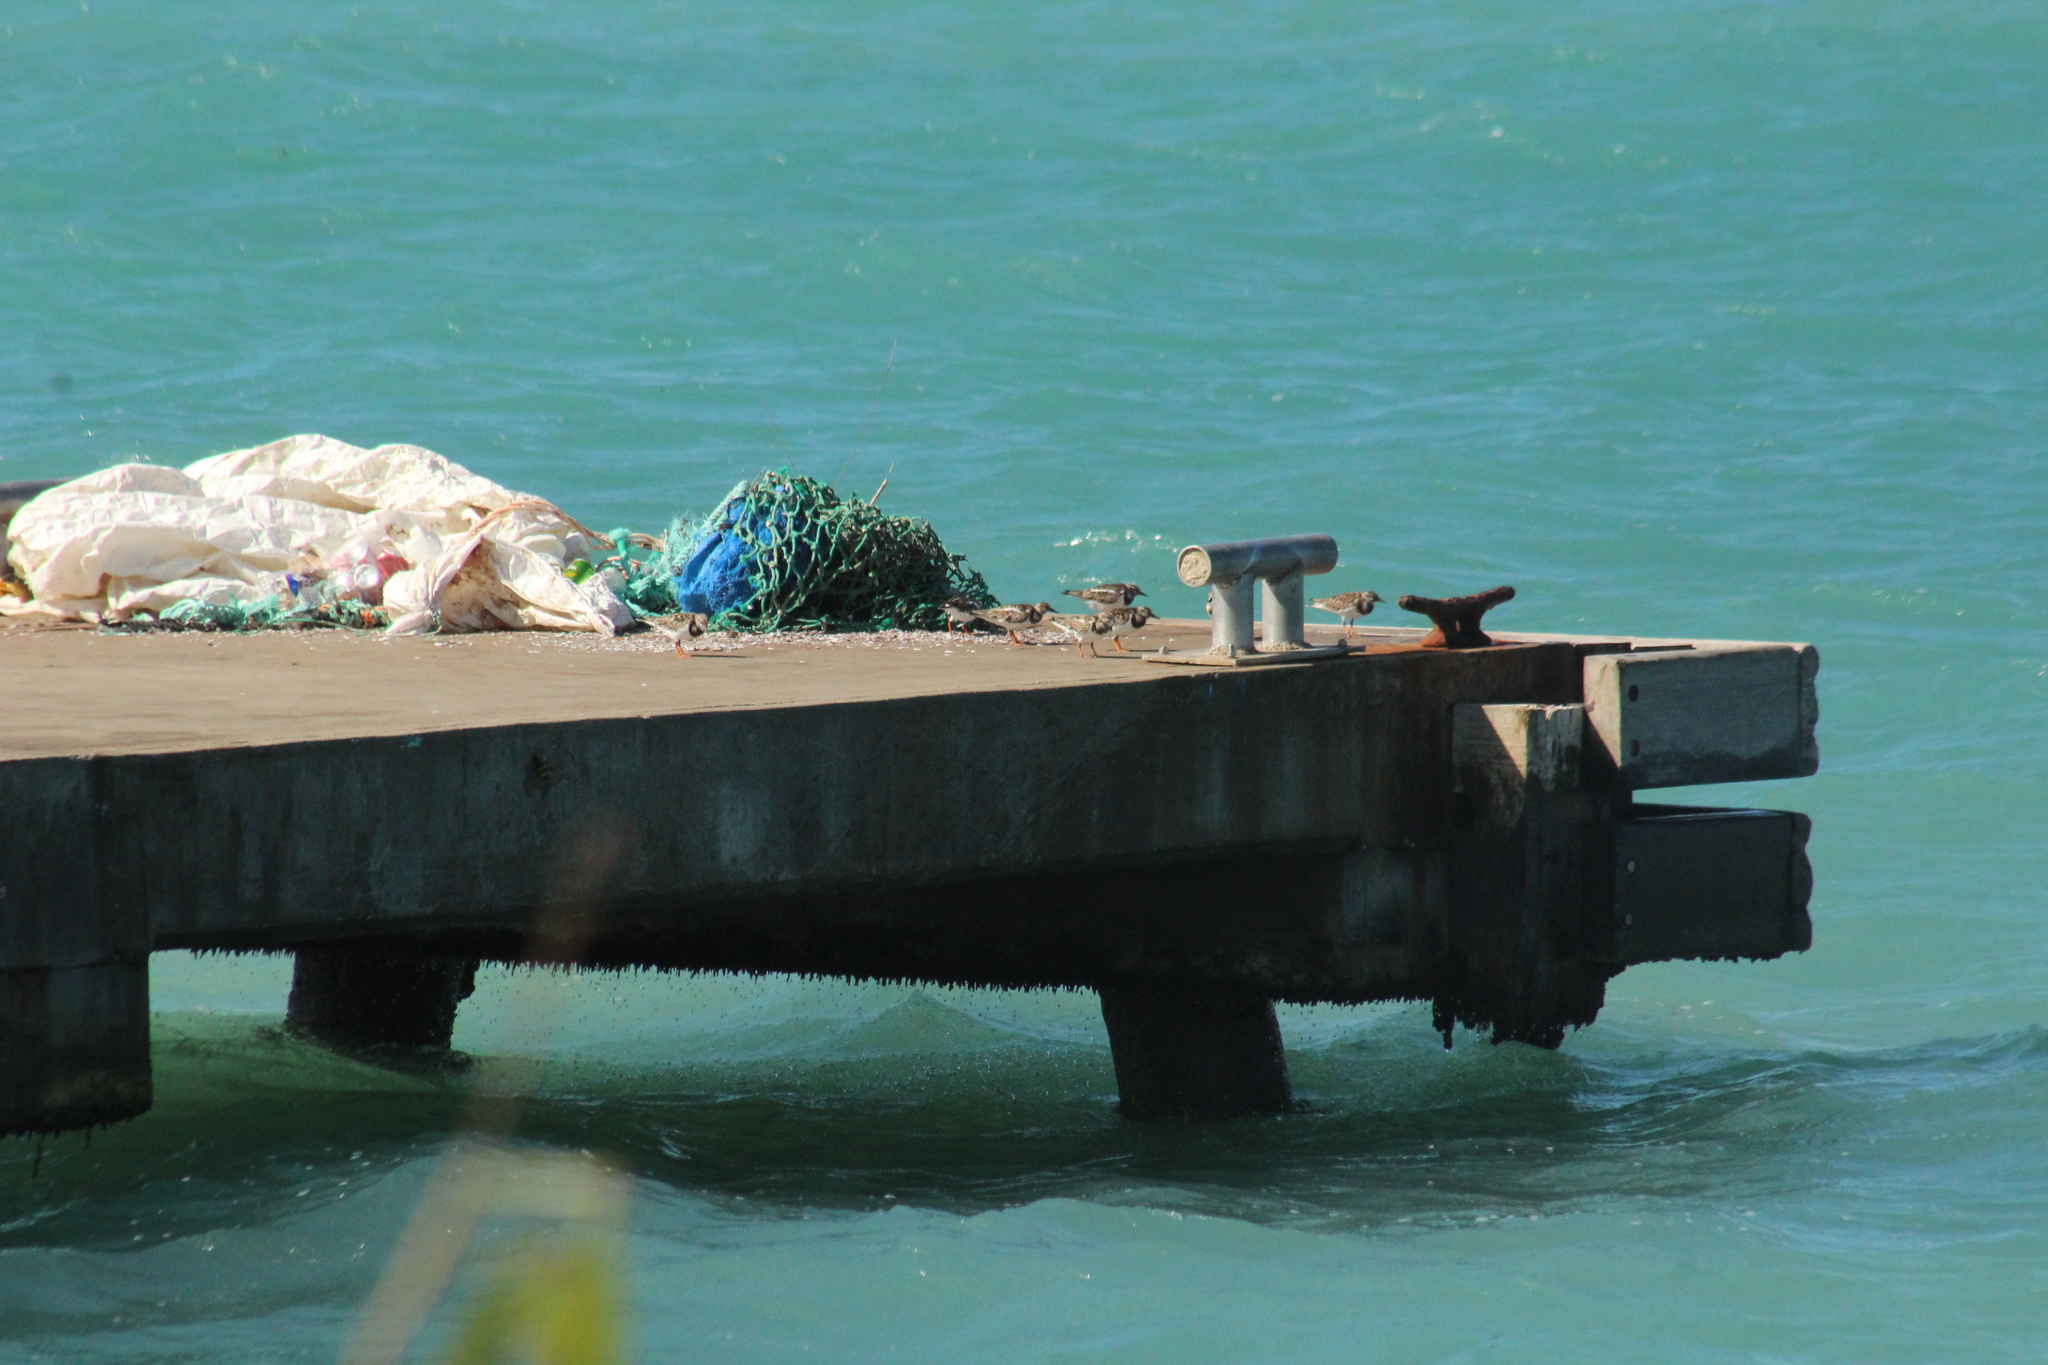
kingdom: Animalia
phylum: Chordata
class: Aves
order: Charadriiformes
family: Scolopacidae
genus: Arenaria
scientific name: Arenaria interpres
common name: Ruddy turnstone
